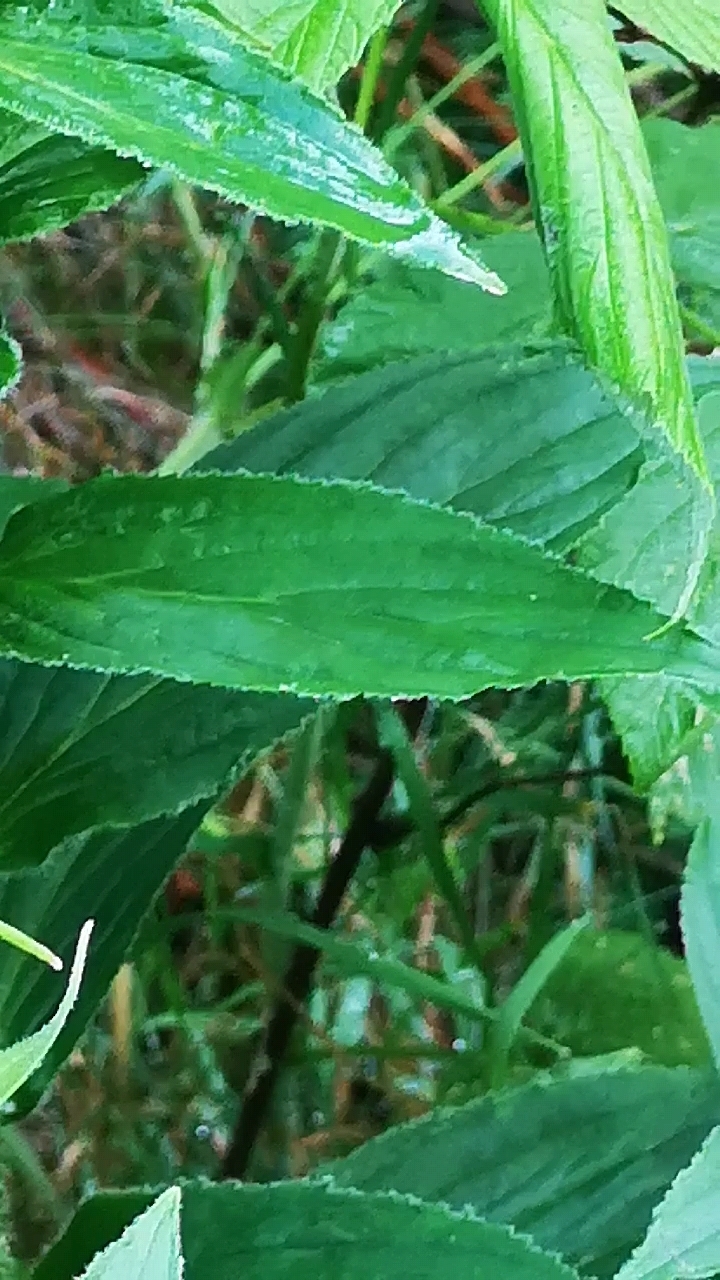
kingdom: Plantae
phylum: Tracheophyta
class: Magnoliopsida
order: Lamiales
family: Plantaginaceae
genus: Digitalis
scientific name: Digitalis grandiflora
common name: Yellow foxglove
